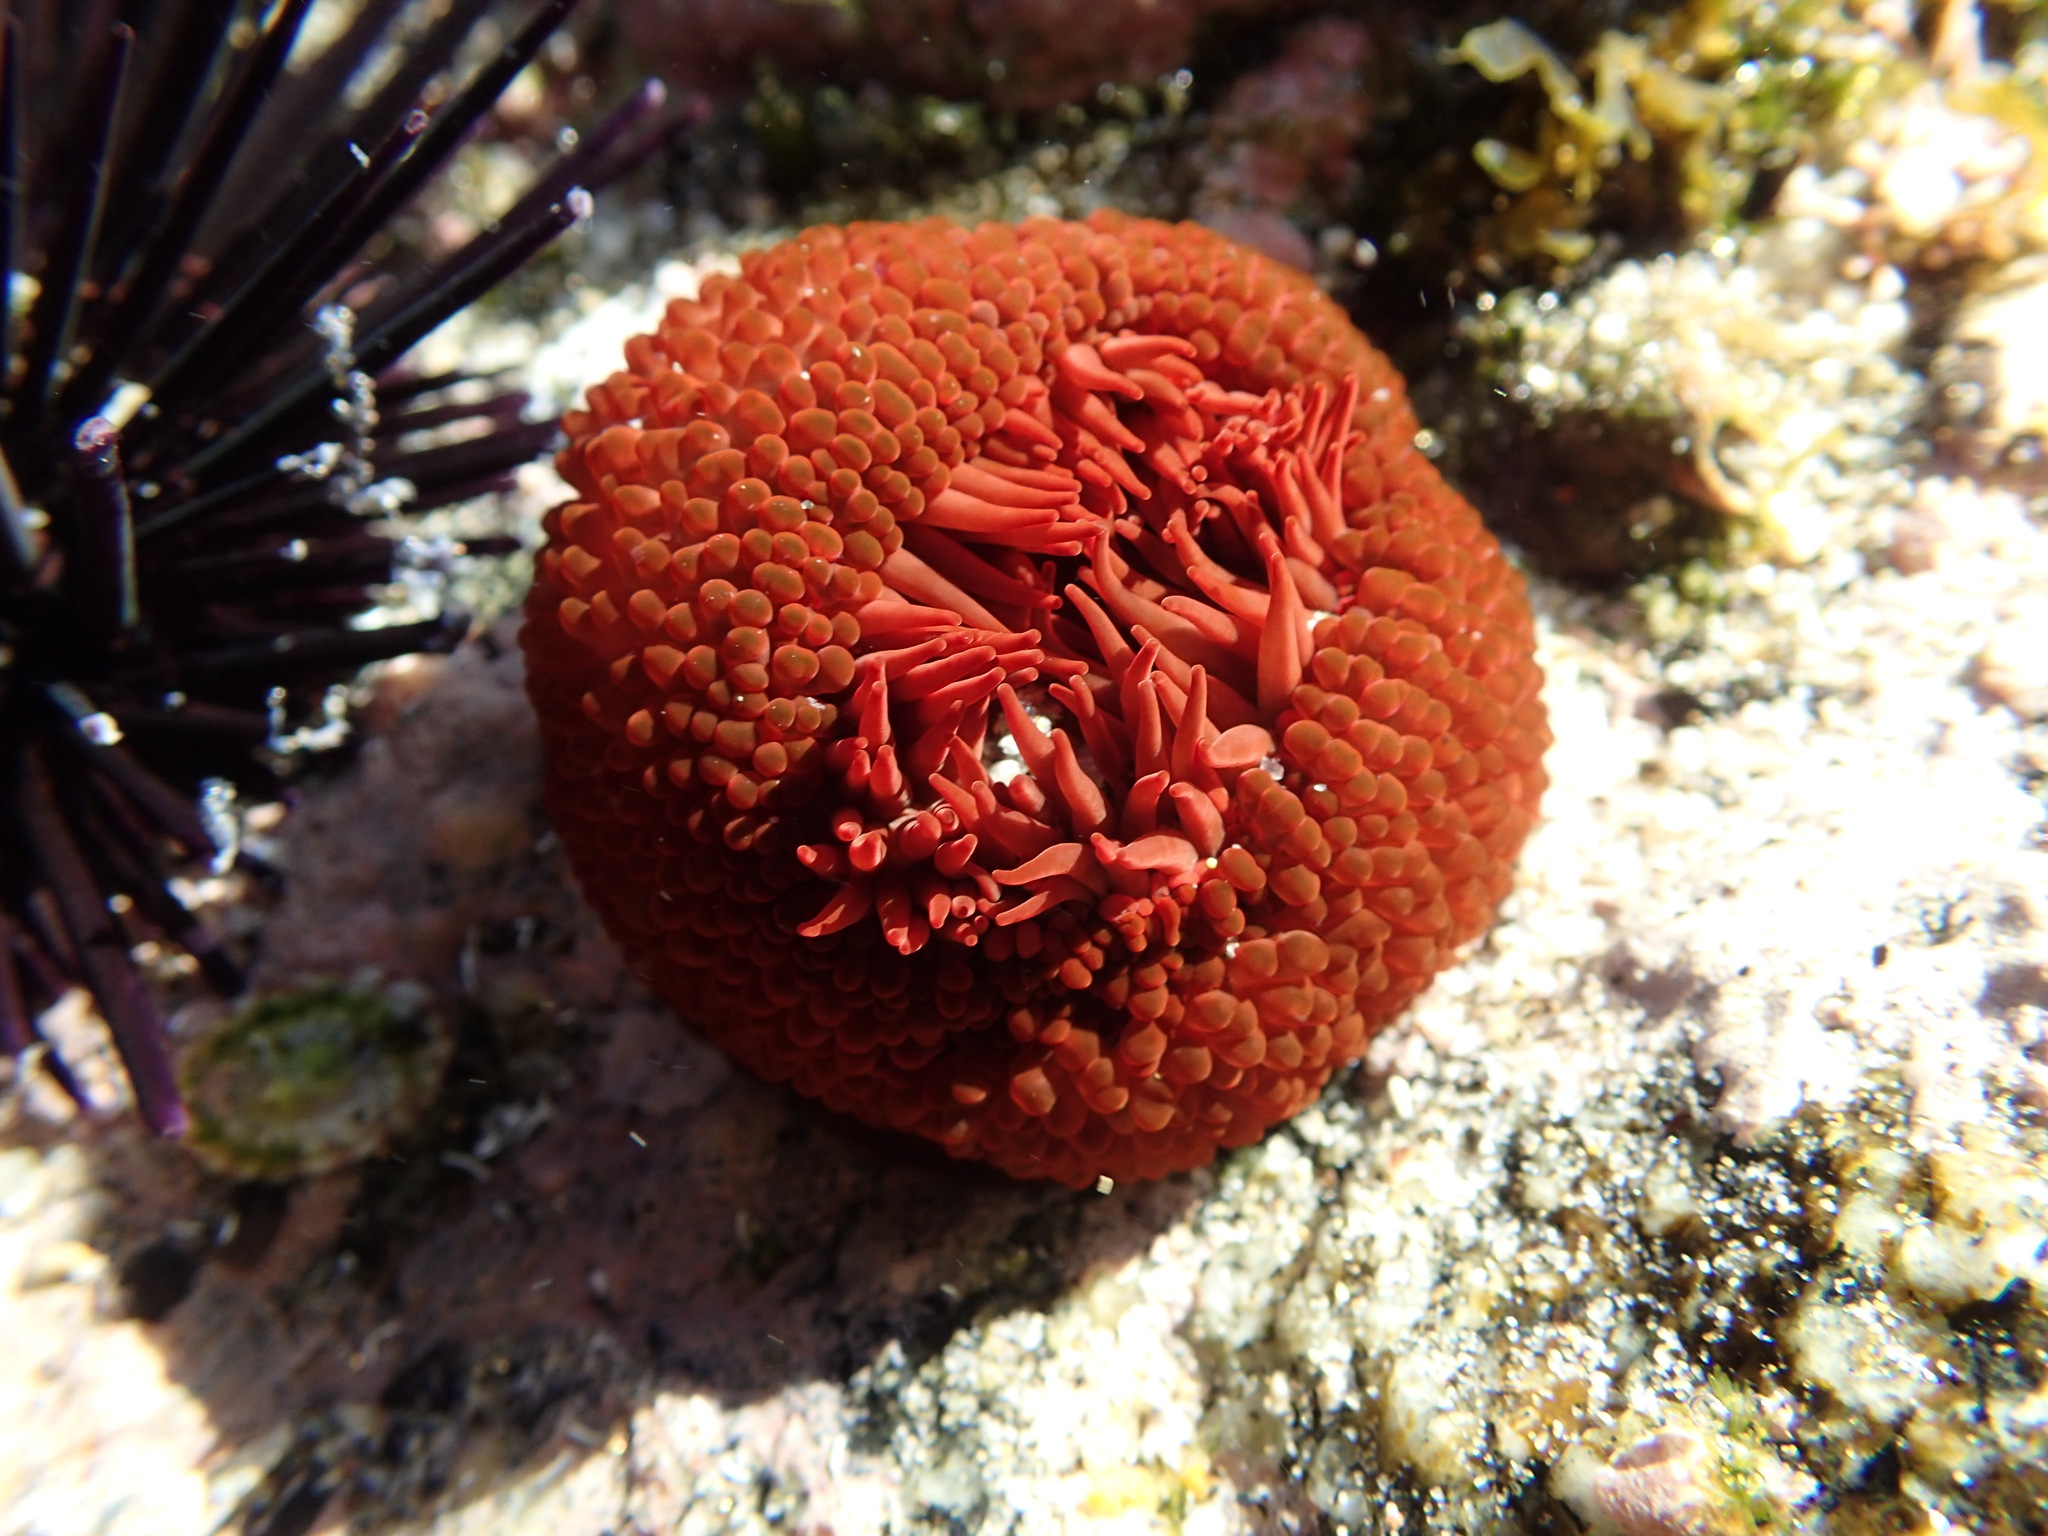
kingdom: Animalia
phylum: Cnidaria
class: Anthozoa
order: Actiniaria
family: Actiniidae
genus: Phymactis
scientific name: Phymactis papillosa
